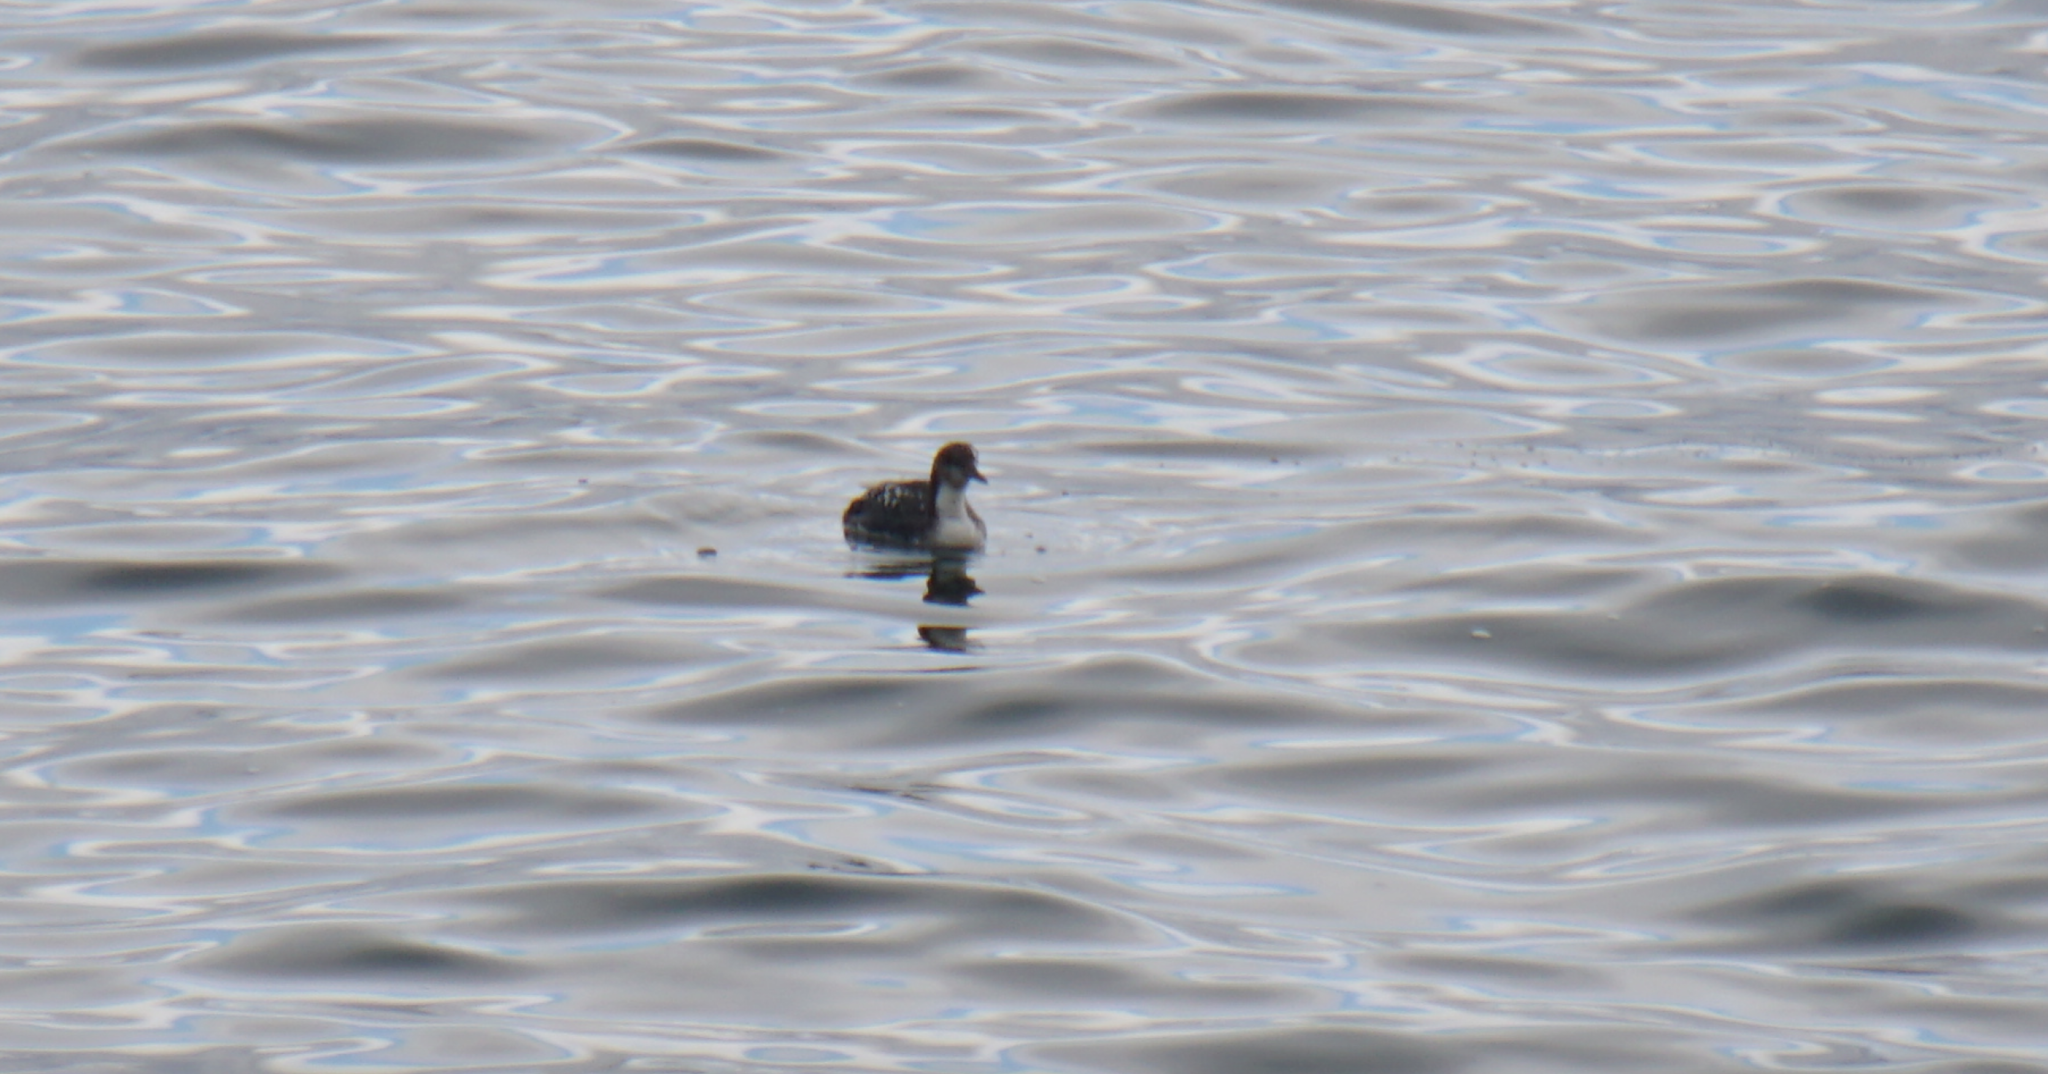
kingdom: Animalia
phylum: Chordata
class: Aves
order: Gaviiformes
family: Gaviidae
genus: Gavia
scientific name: Gavia pacifica
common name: Pacific loon
